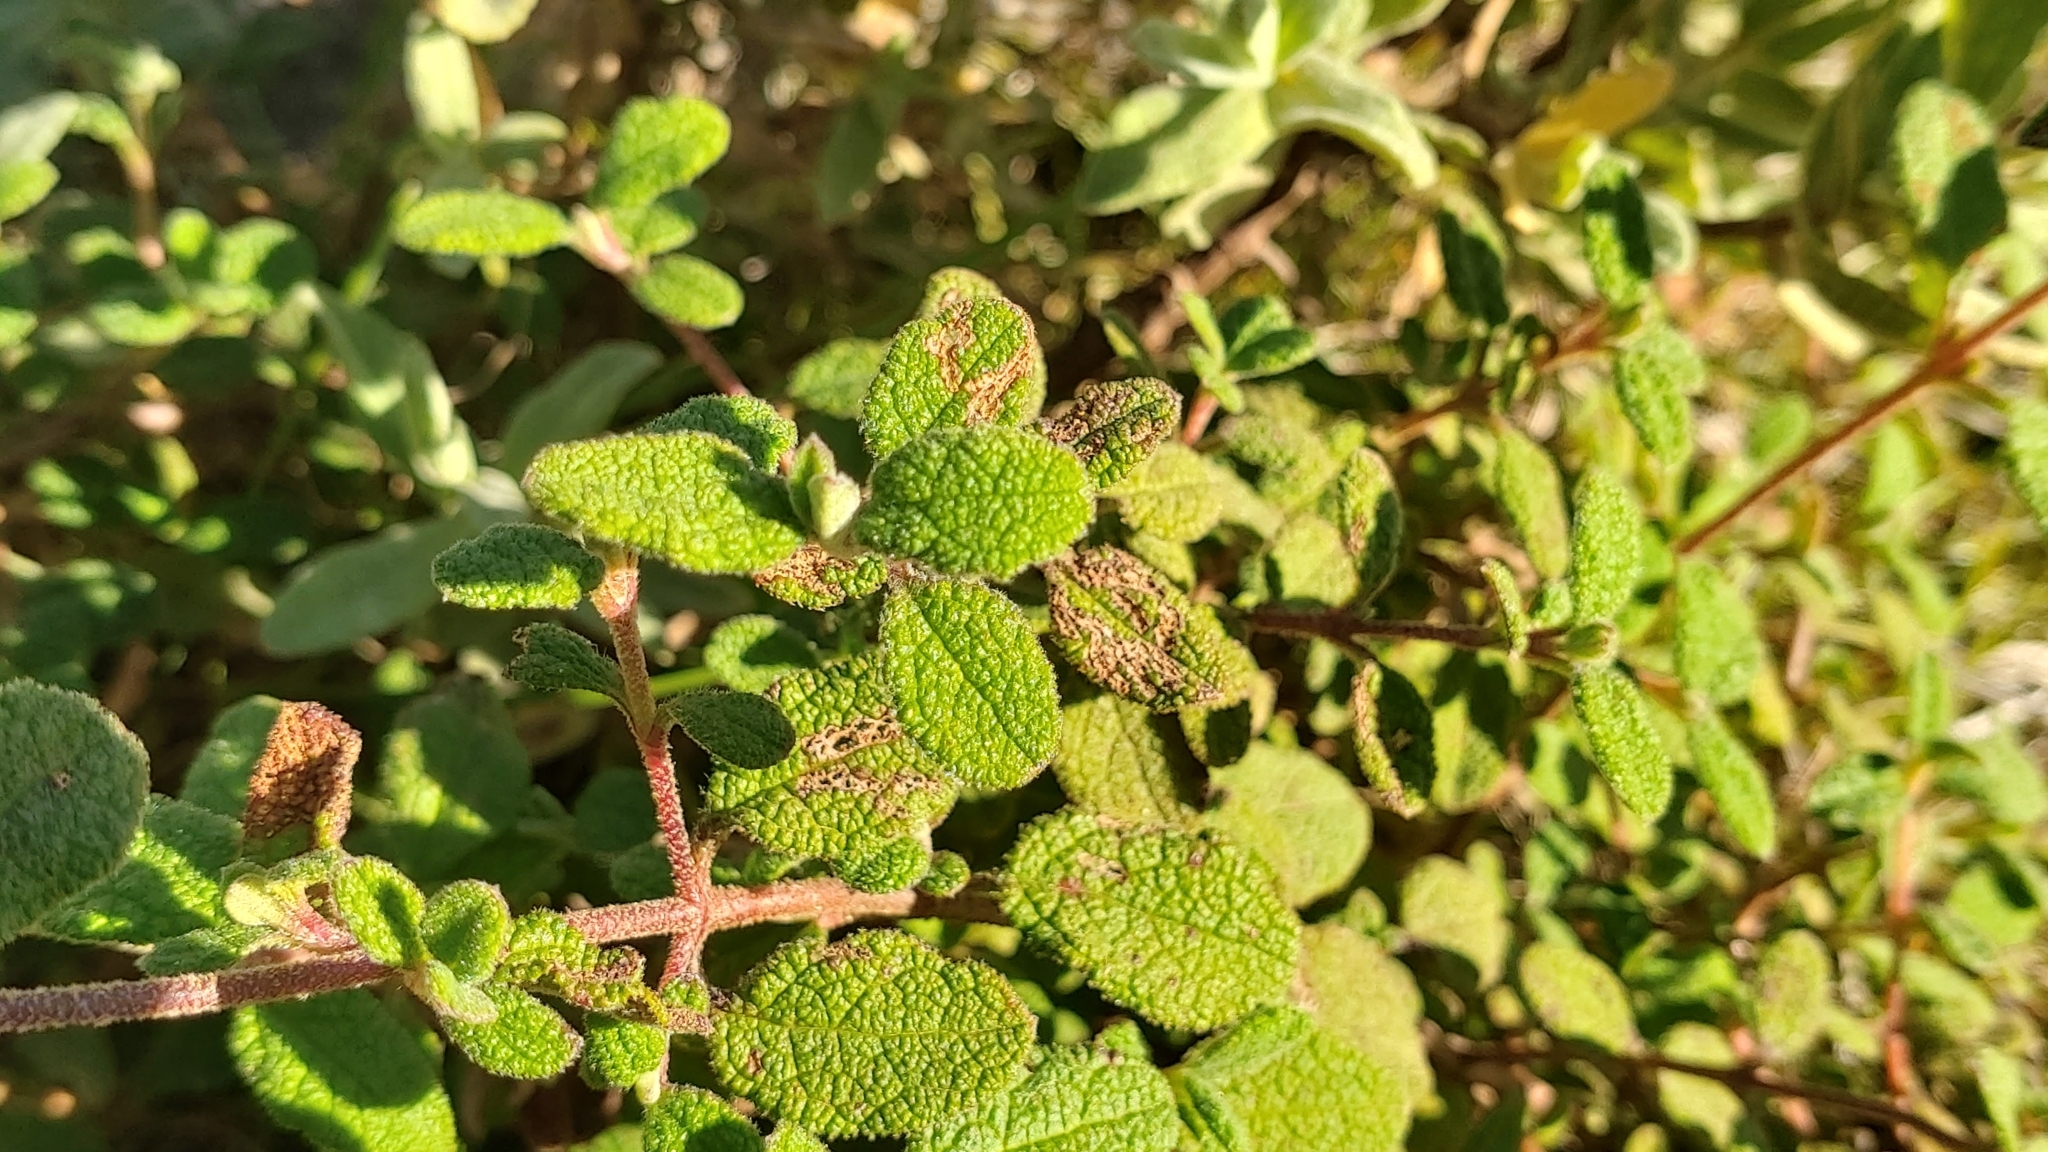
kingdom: Plantae
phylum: Tracheophyta
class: Magnoliopsida
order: Malvales
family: Cistaceae
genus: Cistus
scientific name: Cistus salviifolius
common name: Salvia cistus
